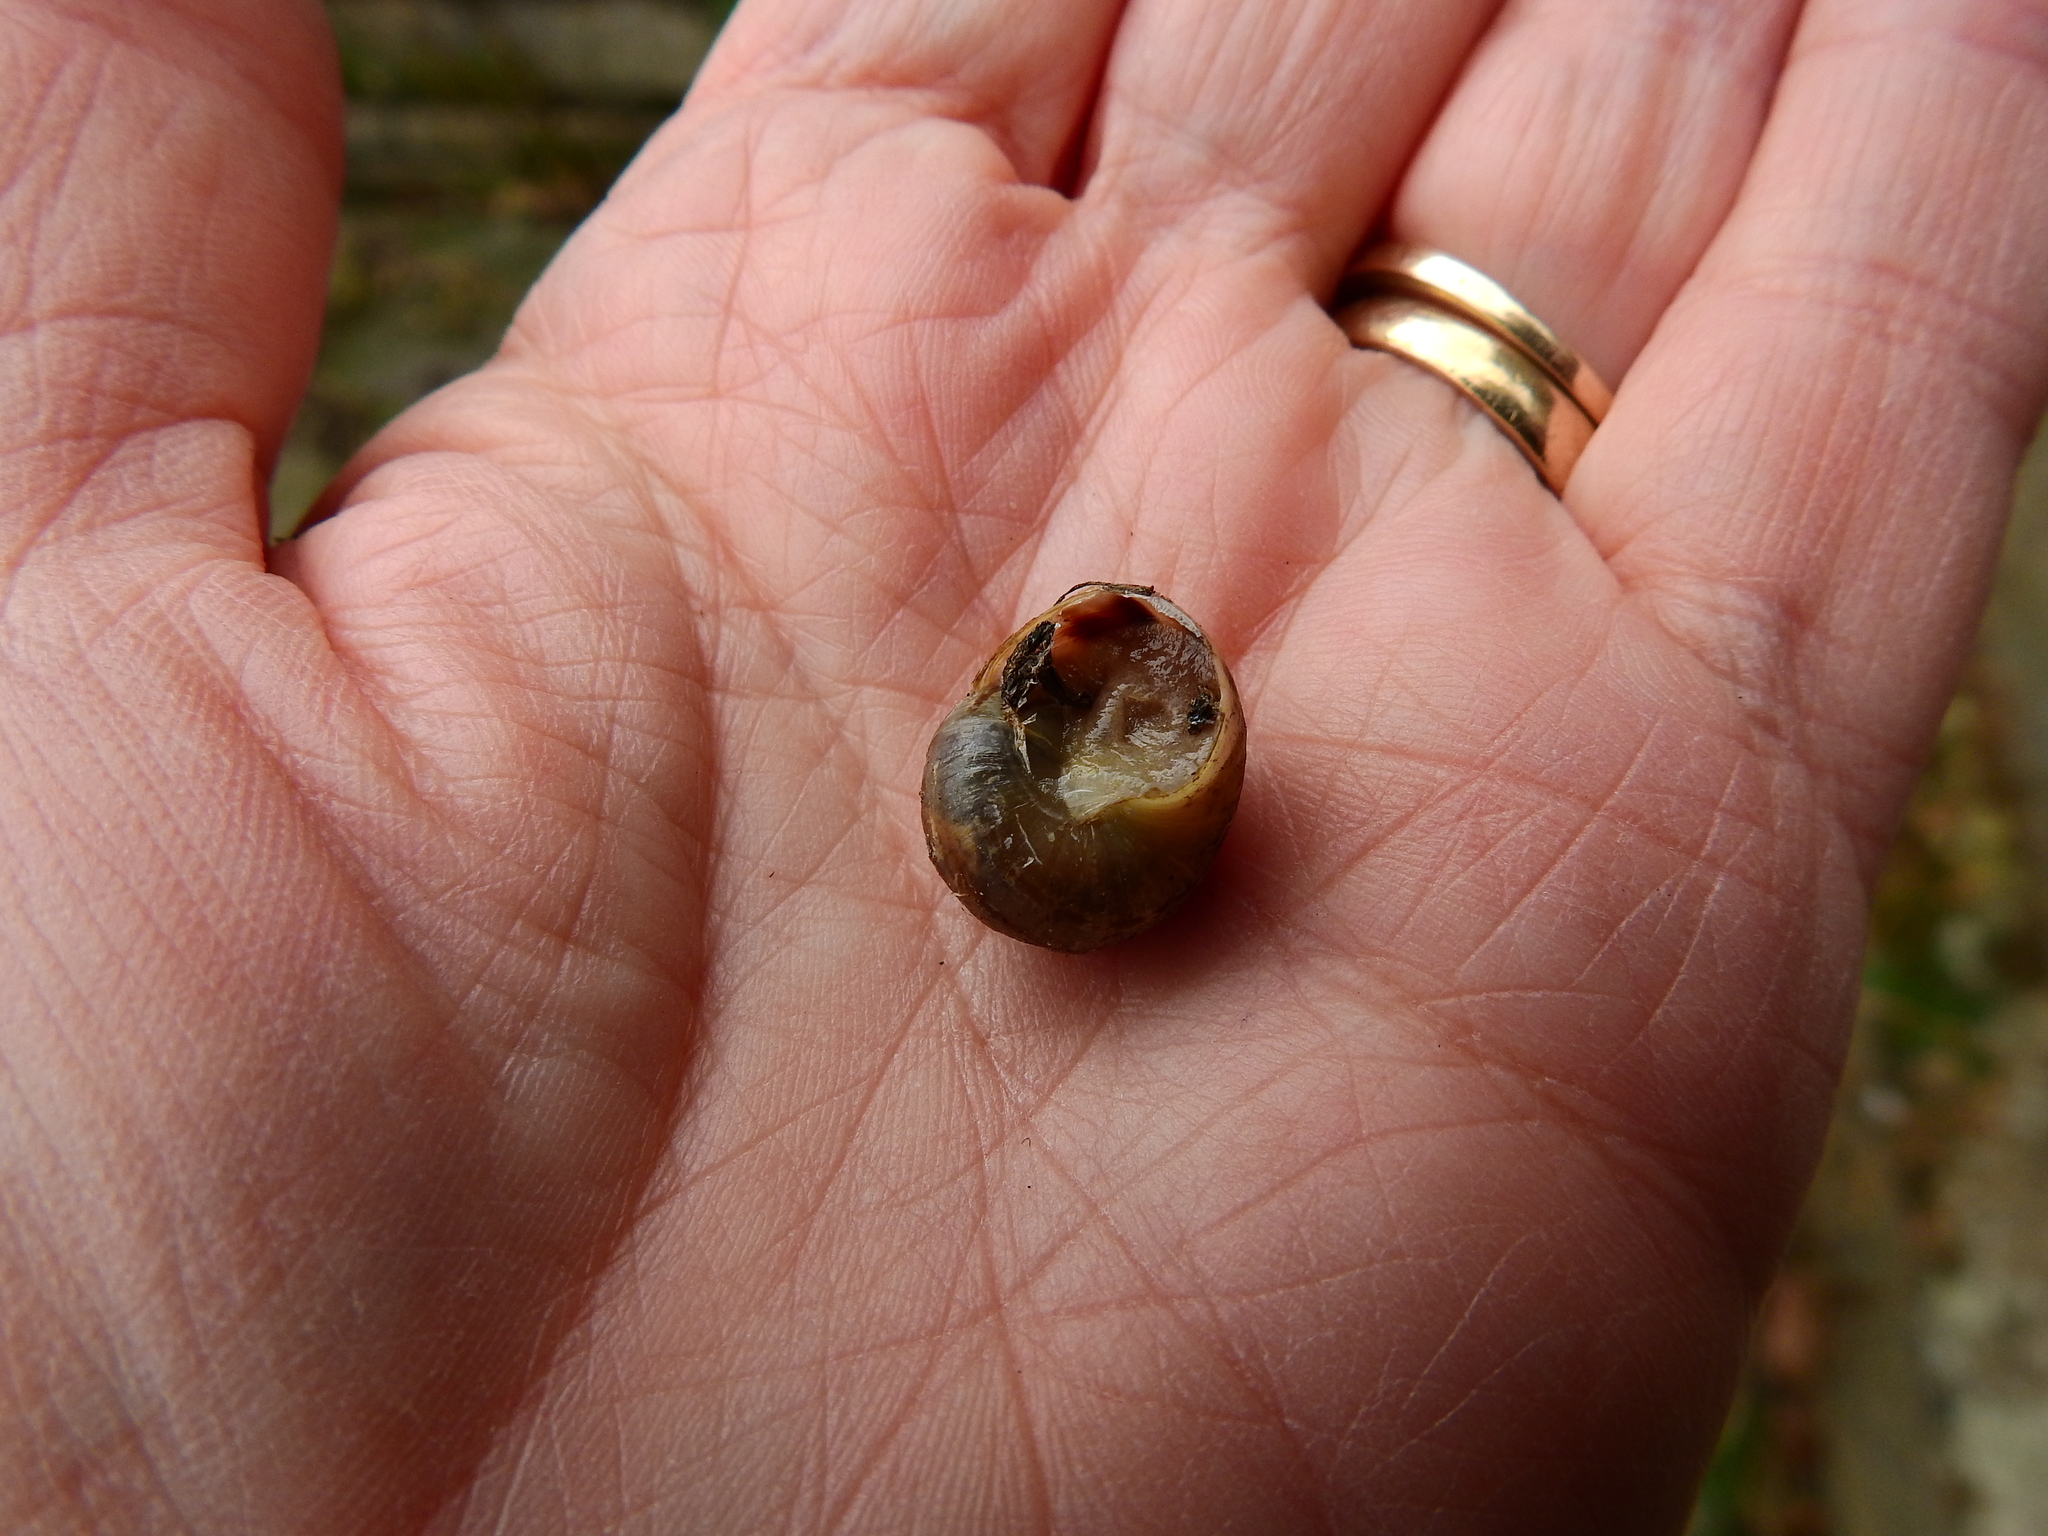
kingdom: Animalia
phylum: Mollusca
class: Gastropoda
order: Stylommatophora
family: Helicidae
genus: Cornu
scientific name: Cornu aspersum
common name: Brown garden snail
